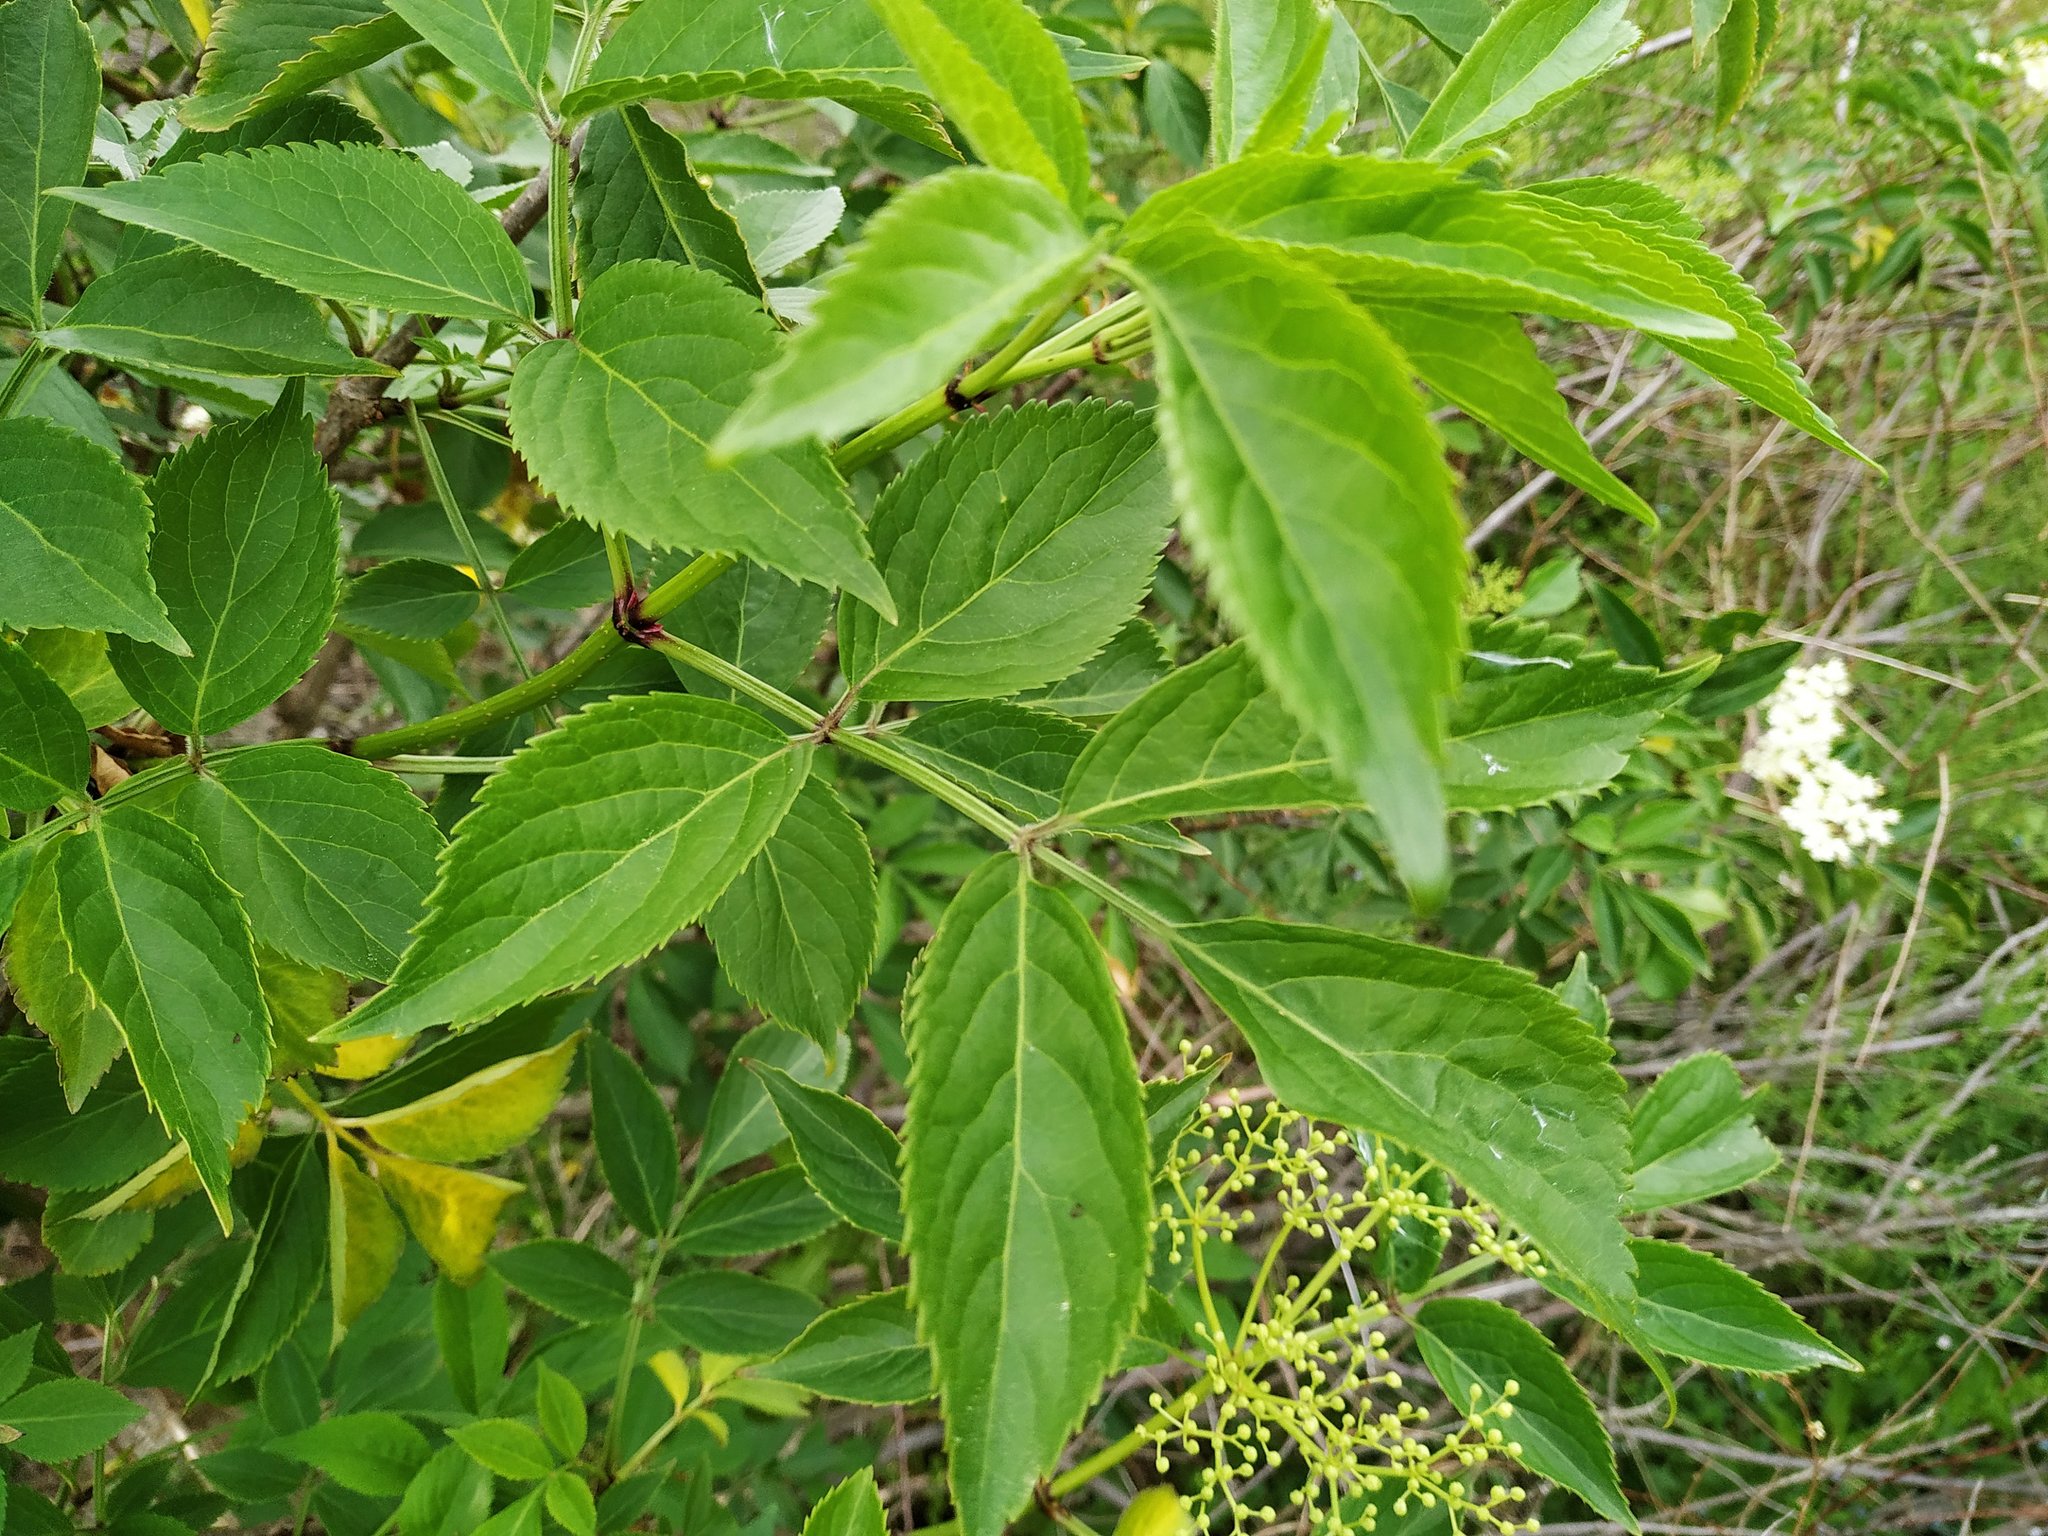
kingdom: Plantae
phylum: Tracheophyta
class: Magnoliopsida
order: Dipsacales
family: Viburnaceae
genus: Sambucus
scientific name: Sambucus nigra
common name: Elder
